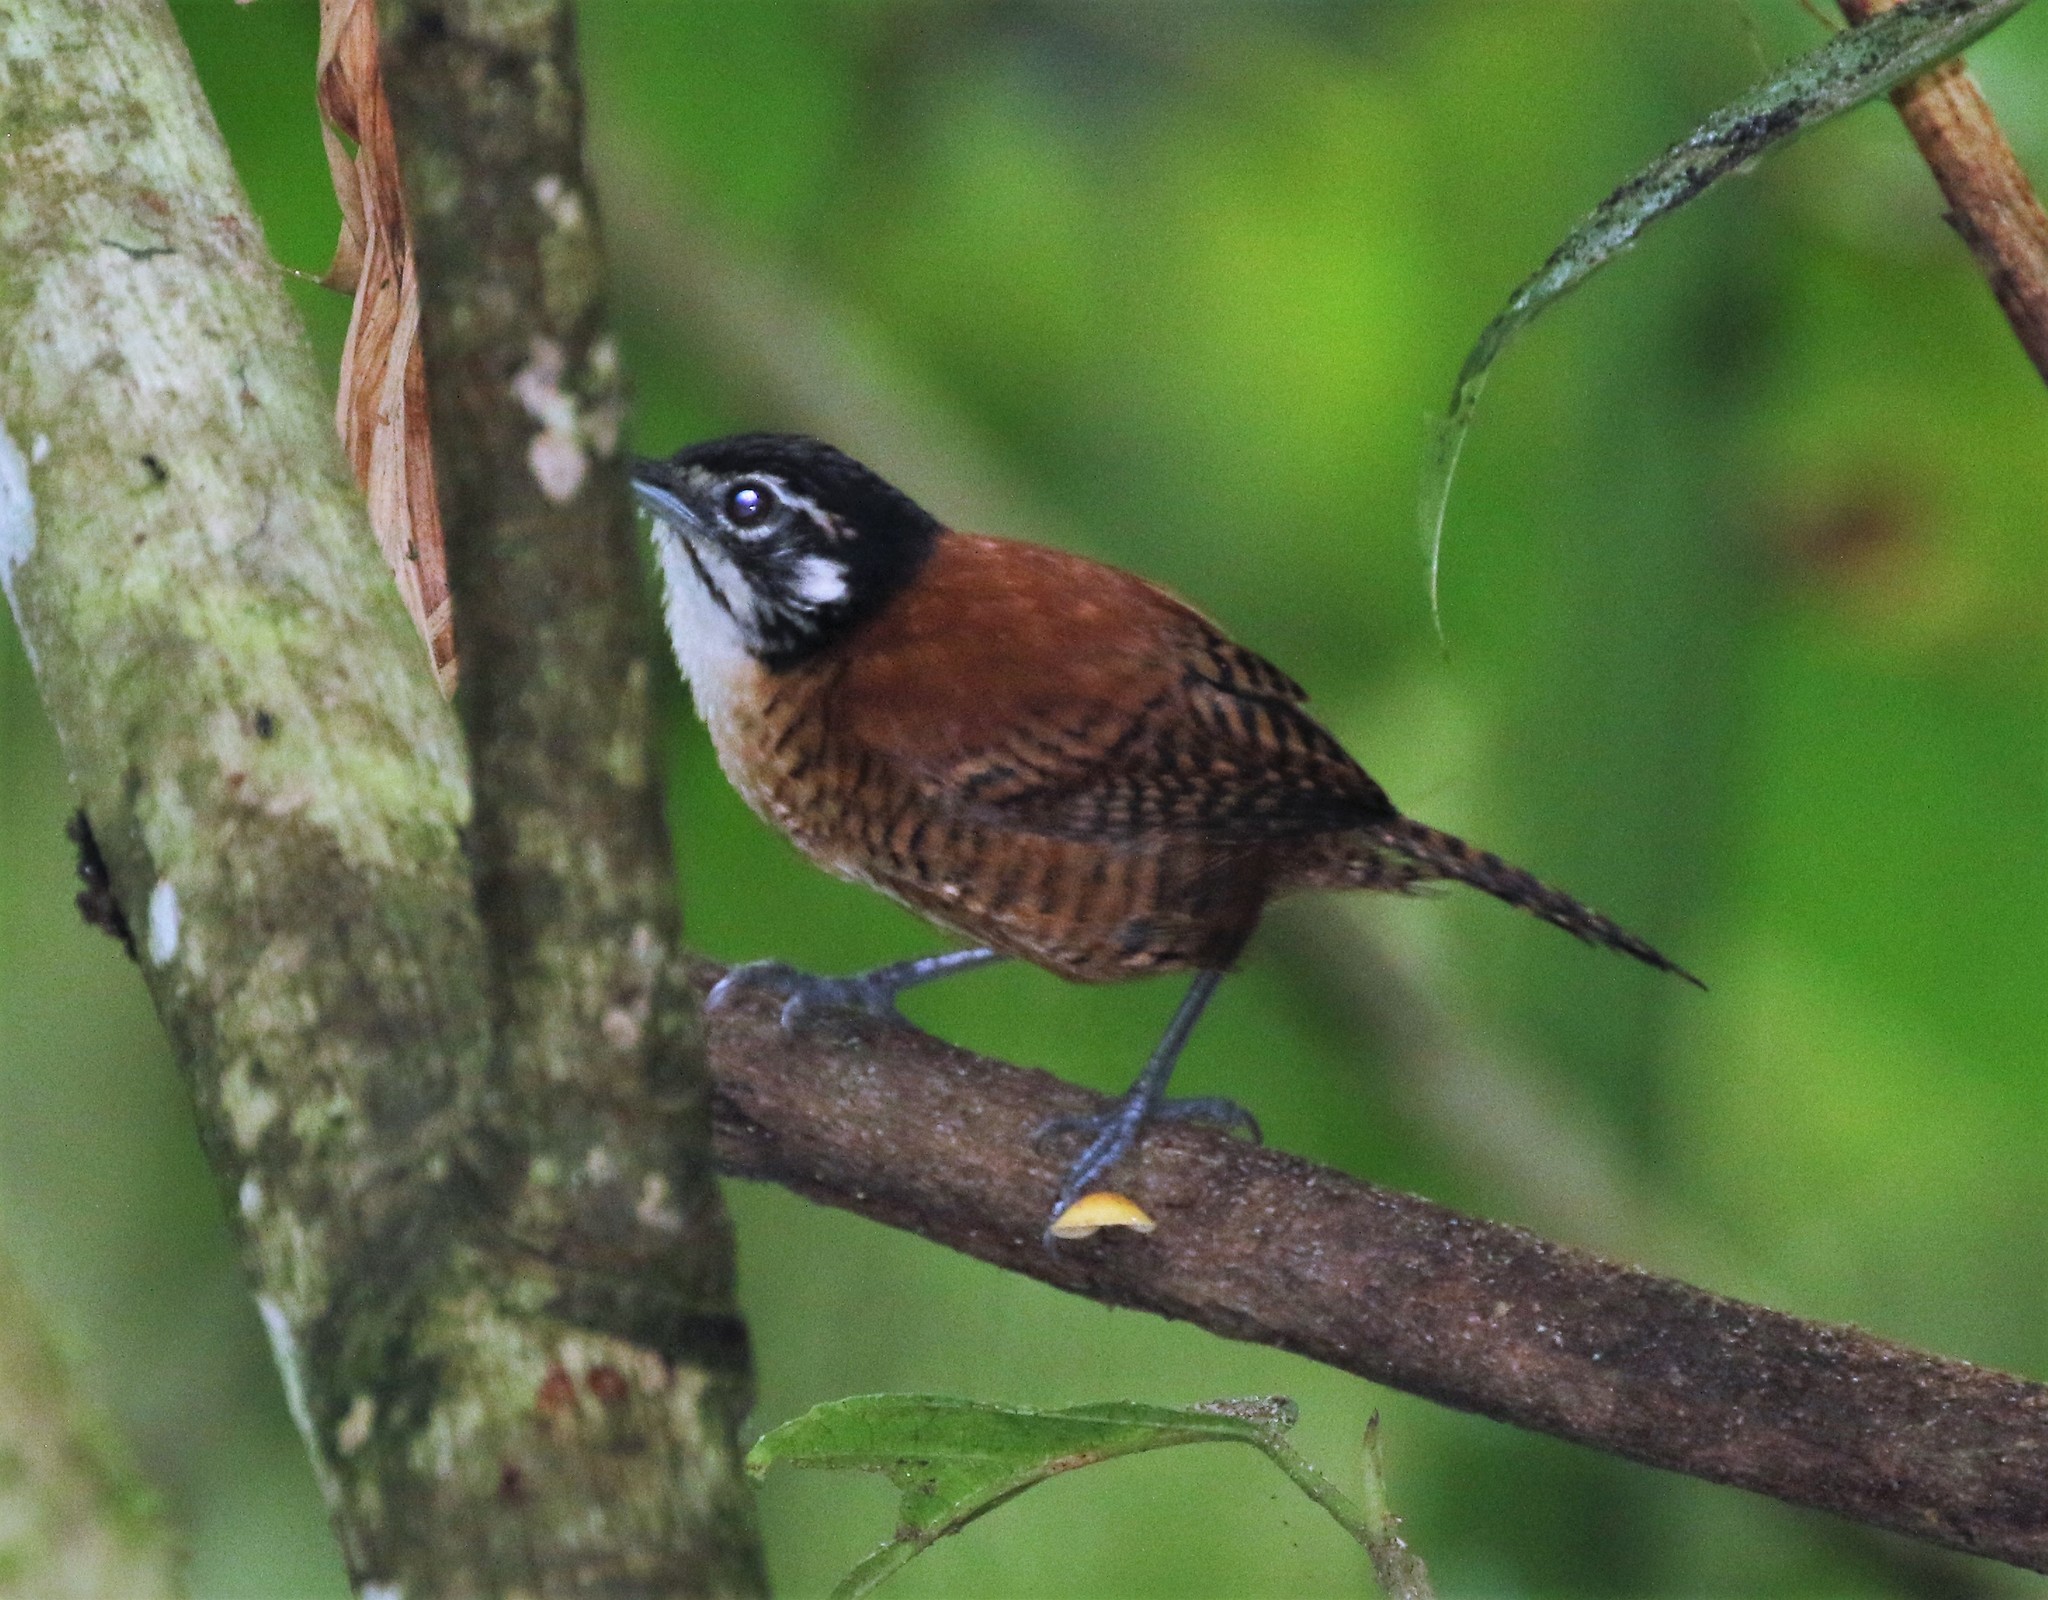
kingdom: Animalia
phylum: Chordata
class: Aves
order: Passeriformes
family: Troglodytidae
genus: Cantorchilus
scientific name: Cantorchilus nigricapillus
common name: Bay wren
